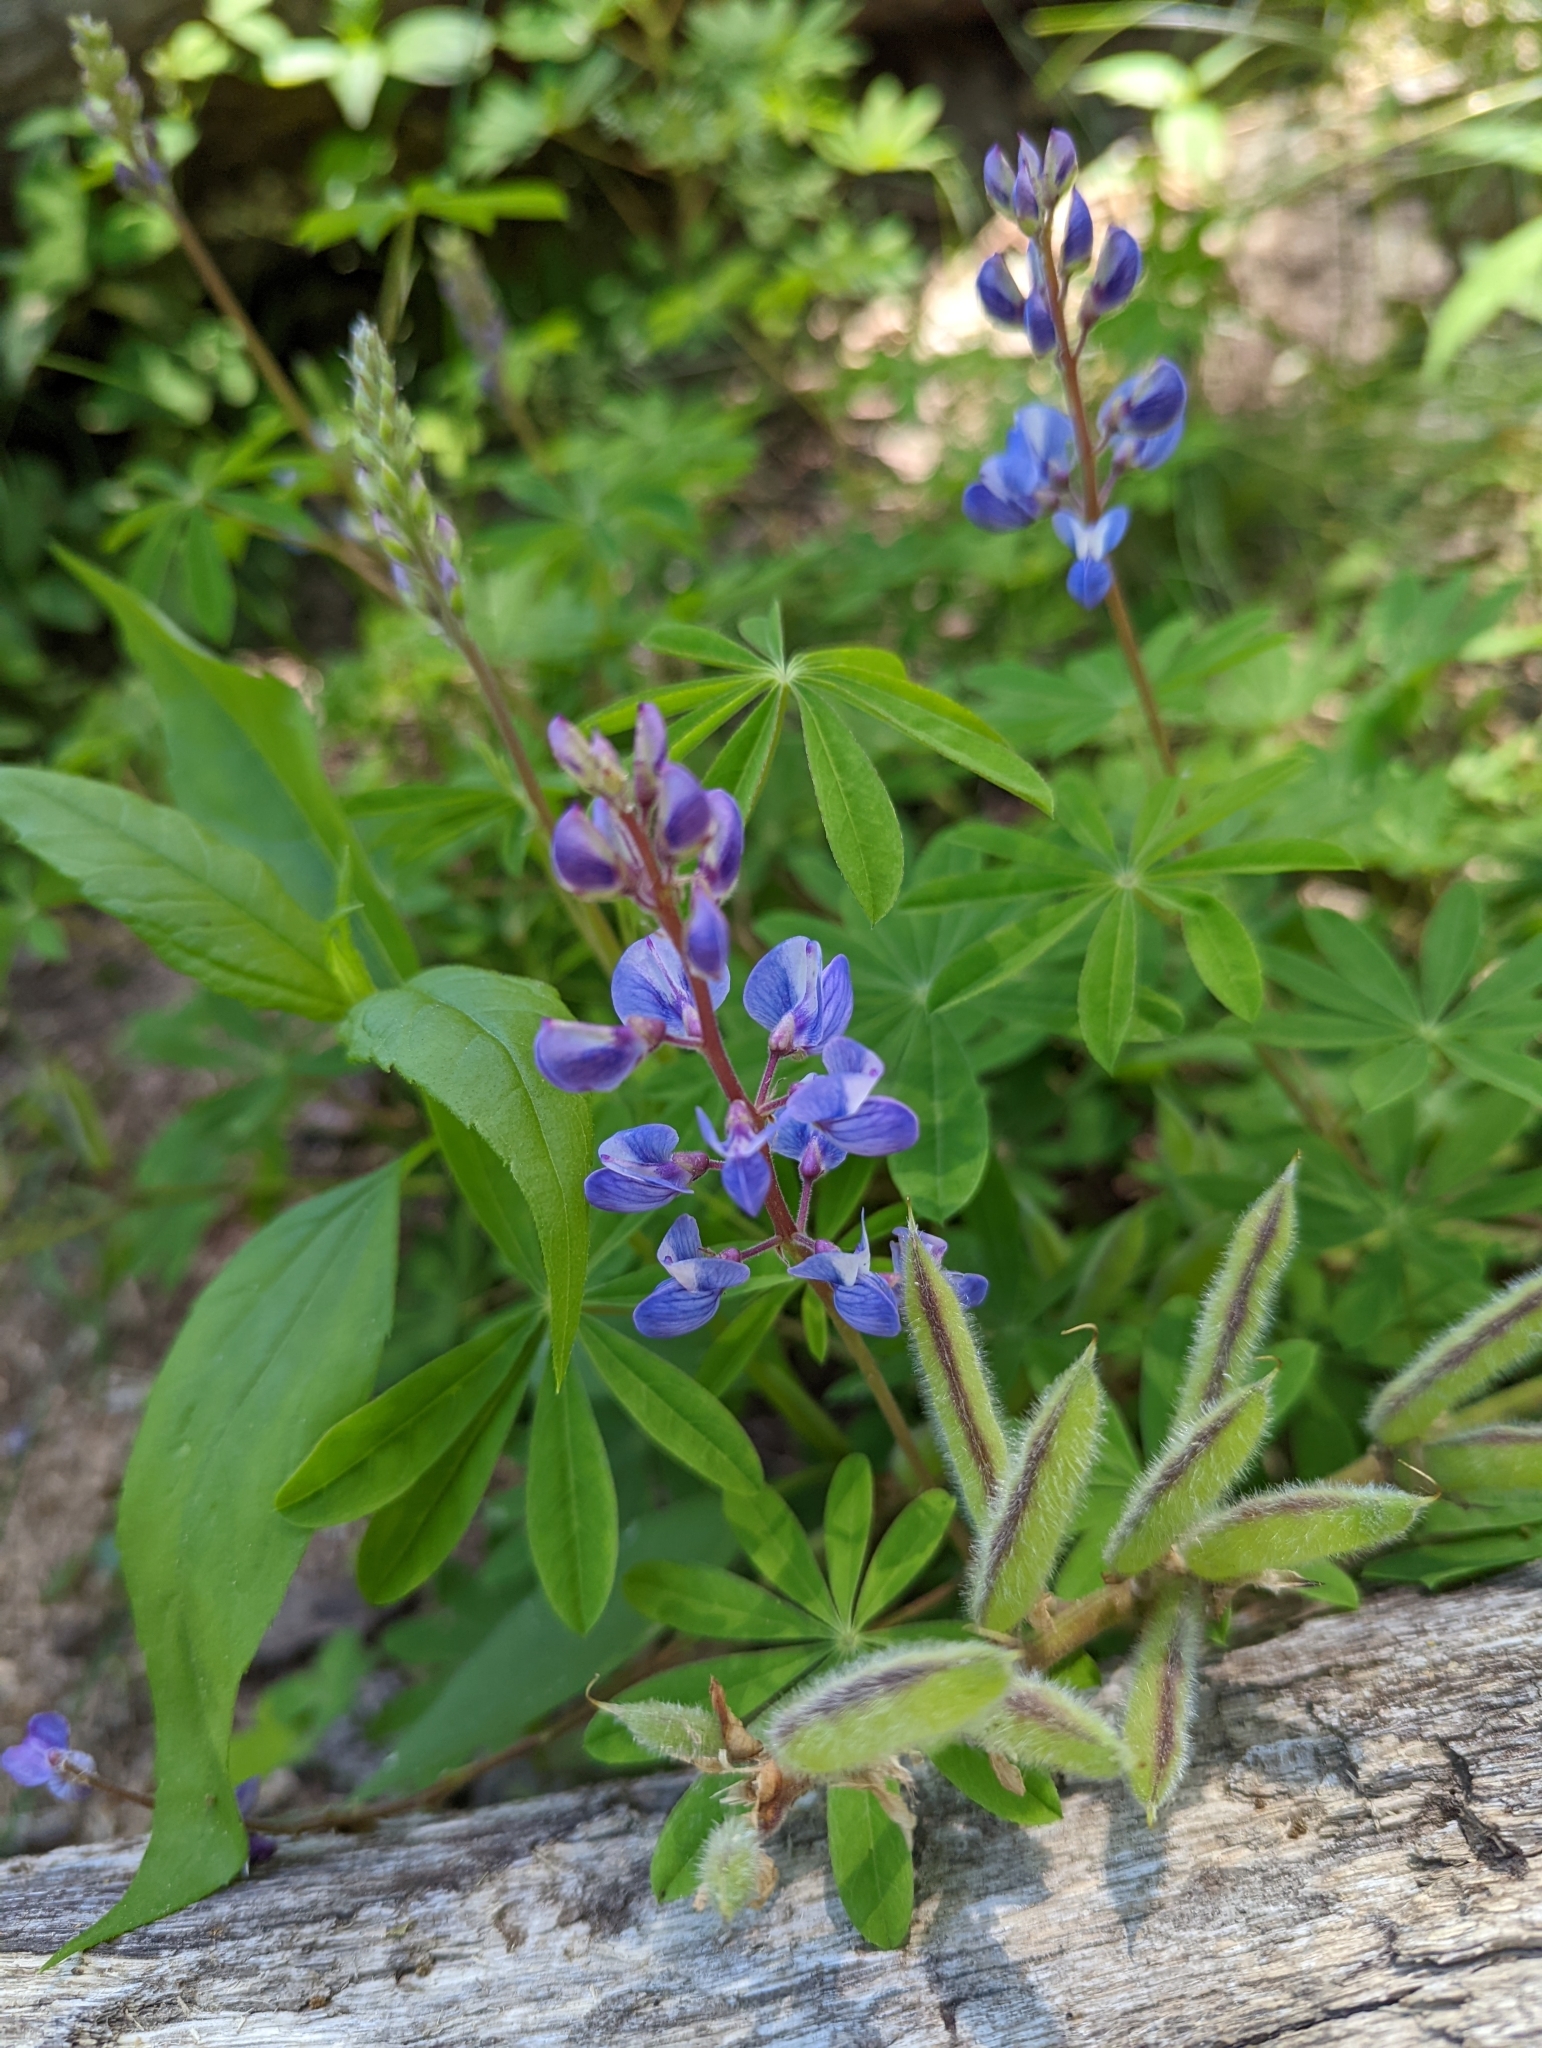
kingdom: Plantae
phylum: Tracheophyta
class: Magnoliopsida
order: Fabales
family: Fabaceae
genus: Lupinus
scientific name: Lupinus perennis
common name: Sundial lupine
